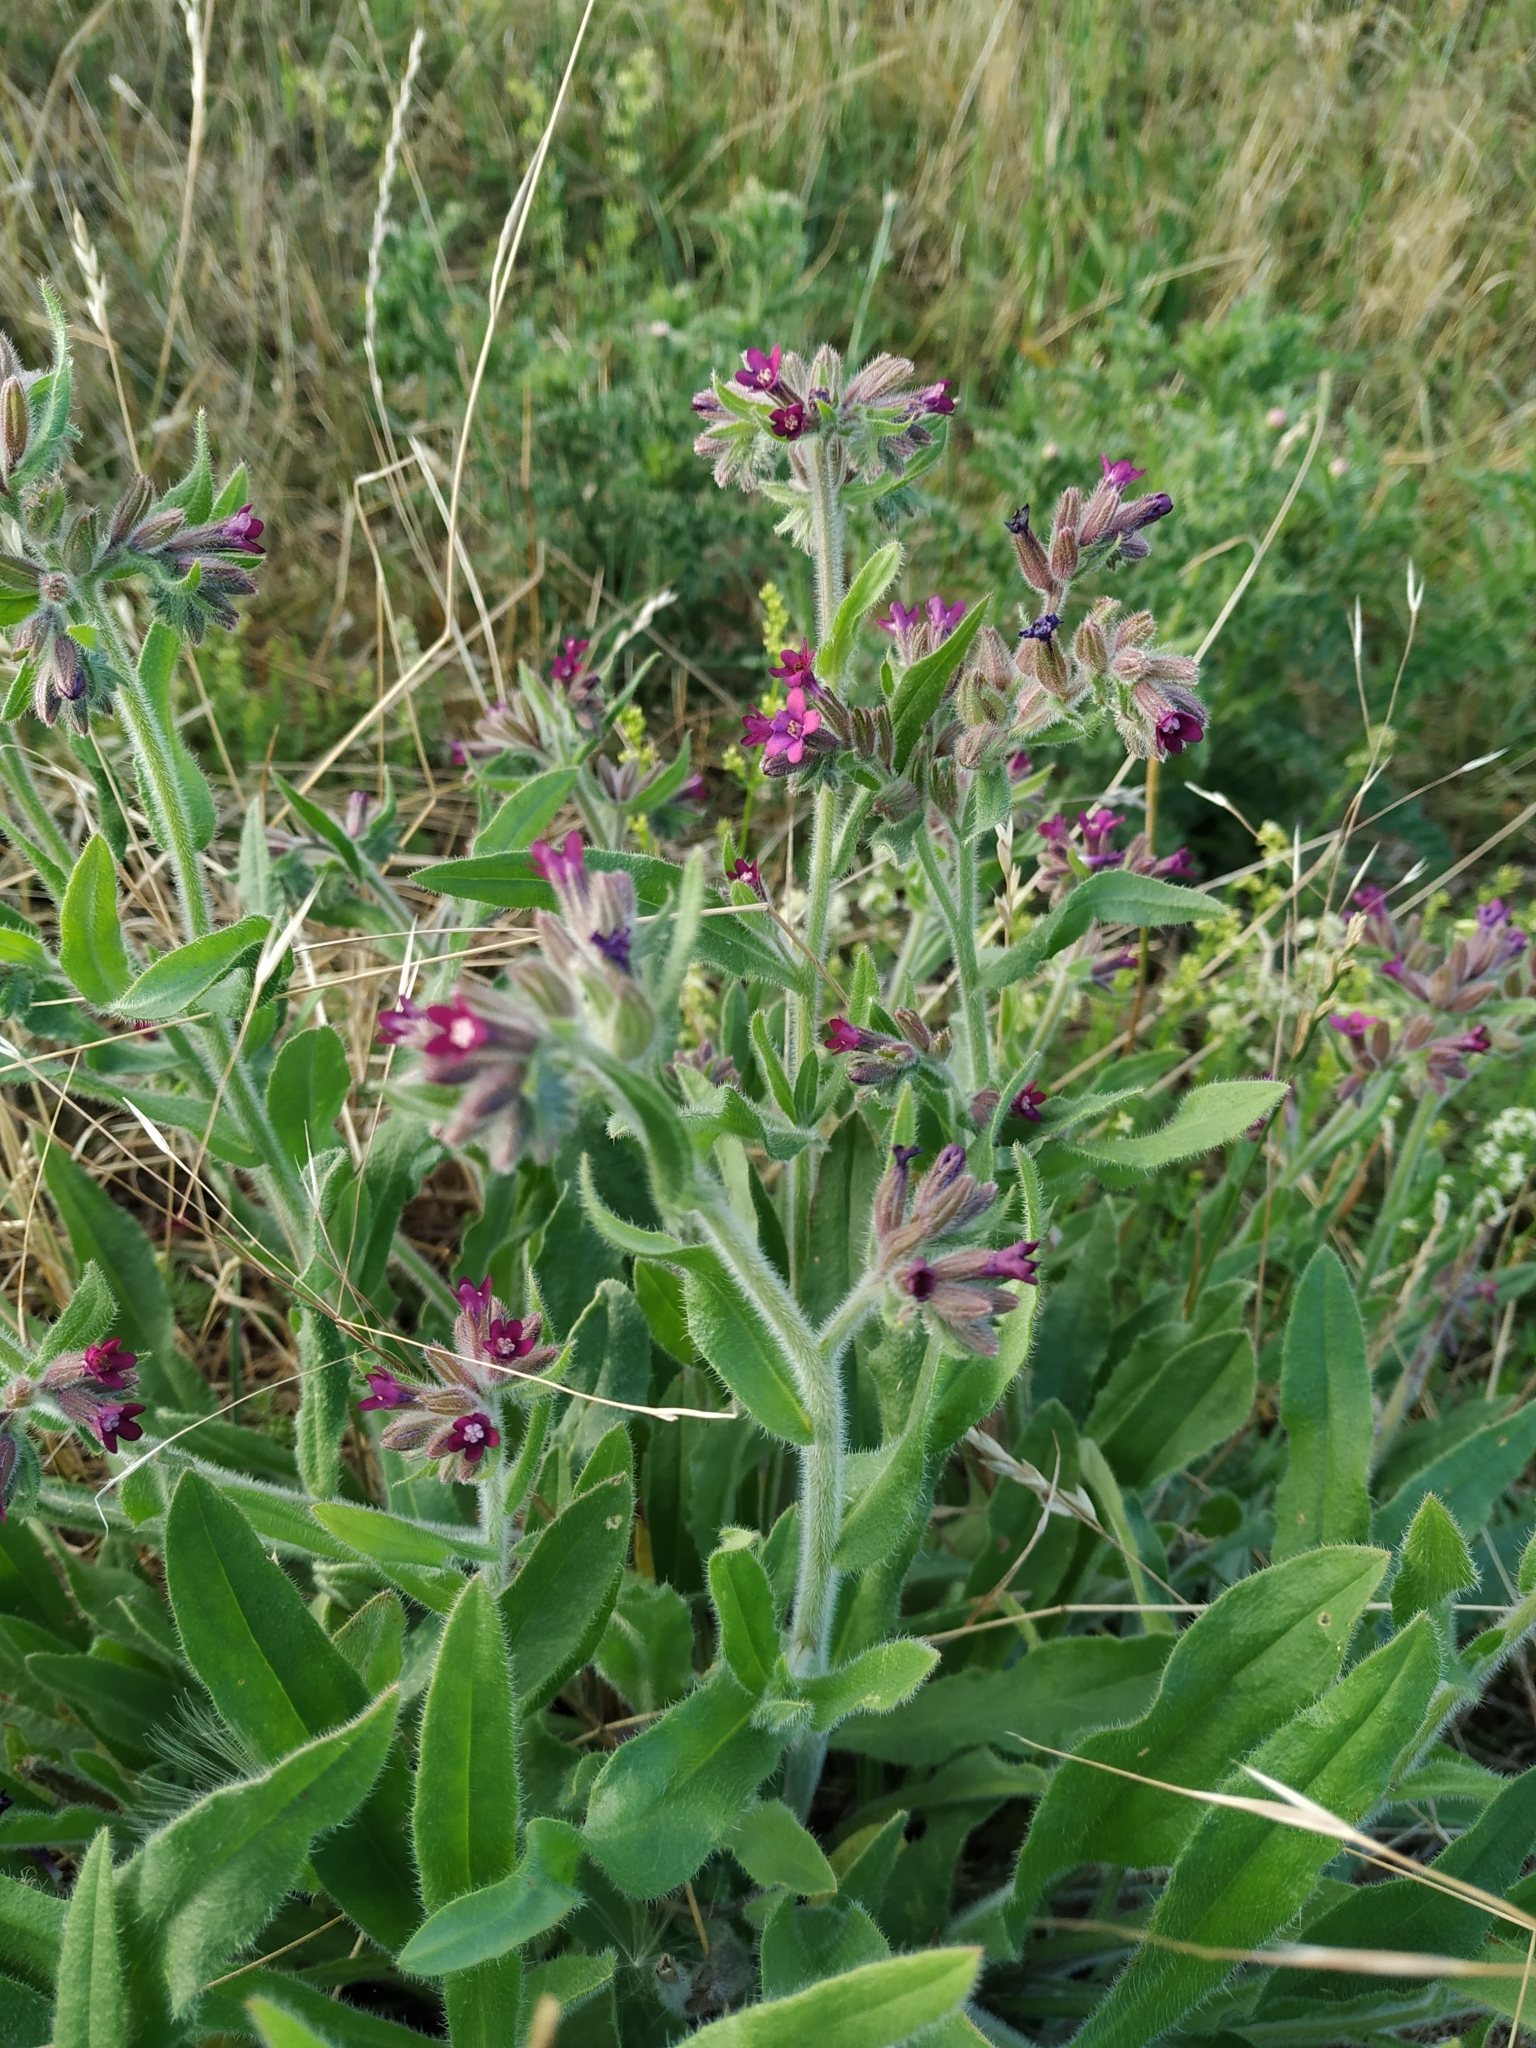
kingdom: Plantae
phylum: Tracheophyta
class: Magnoliopsida
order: Boraginales
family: Boraginaceae
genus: Anchusa
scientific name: Anchusa officinalis
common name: Alkanet
